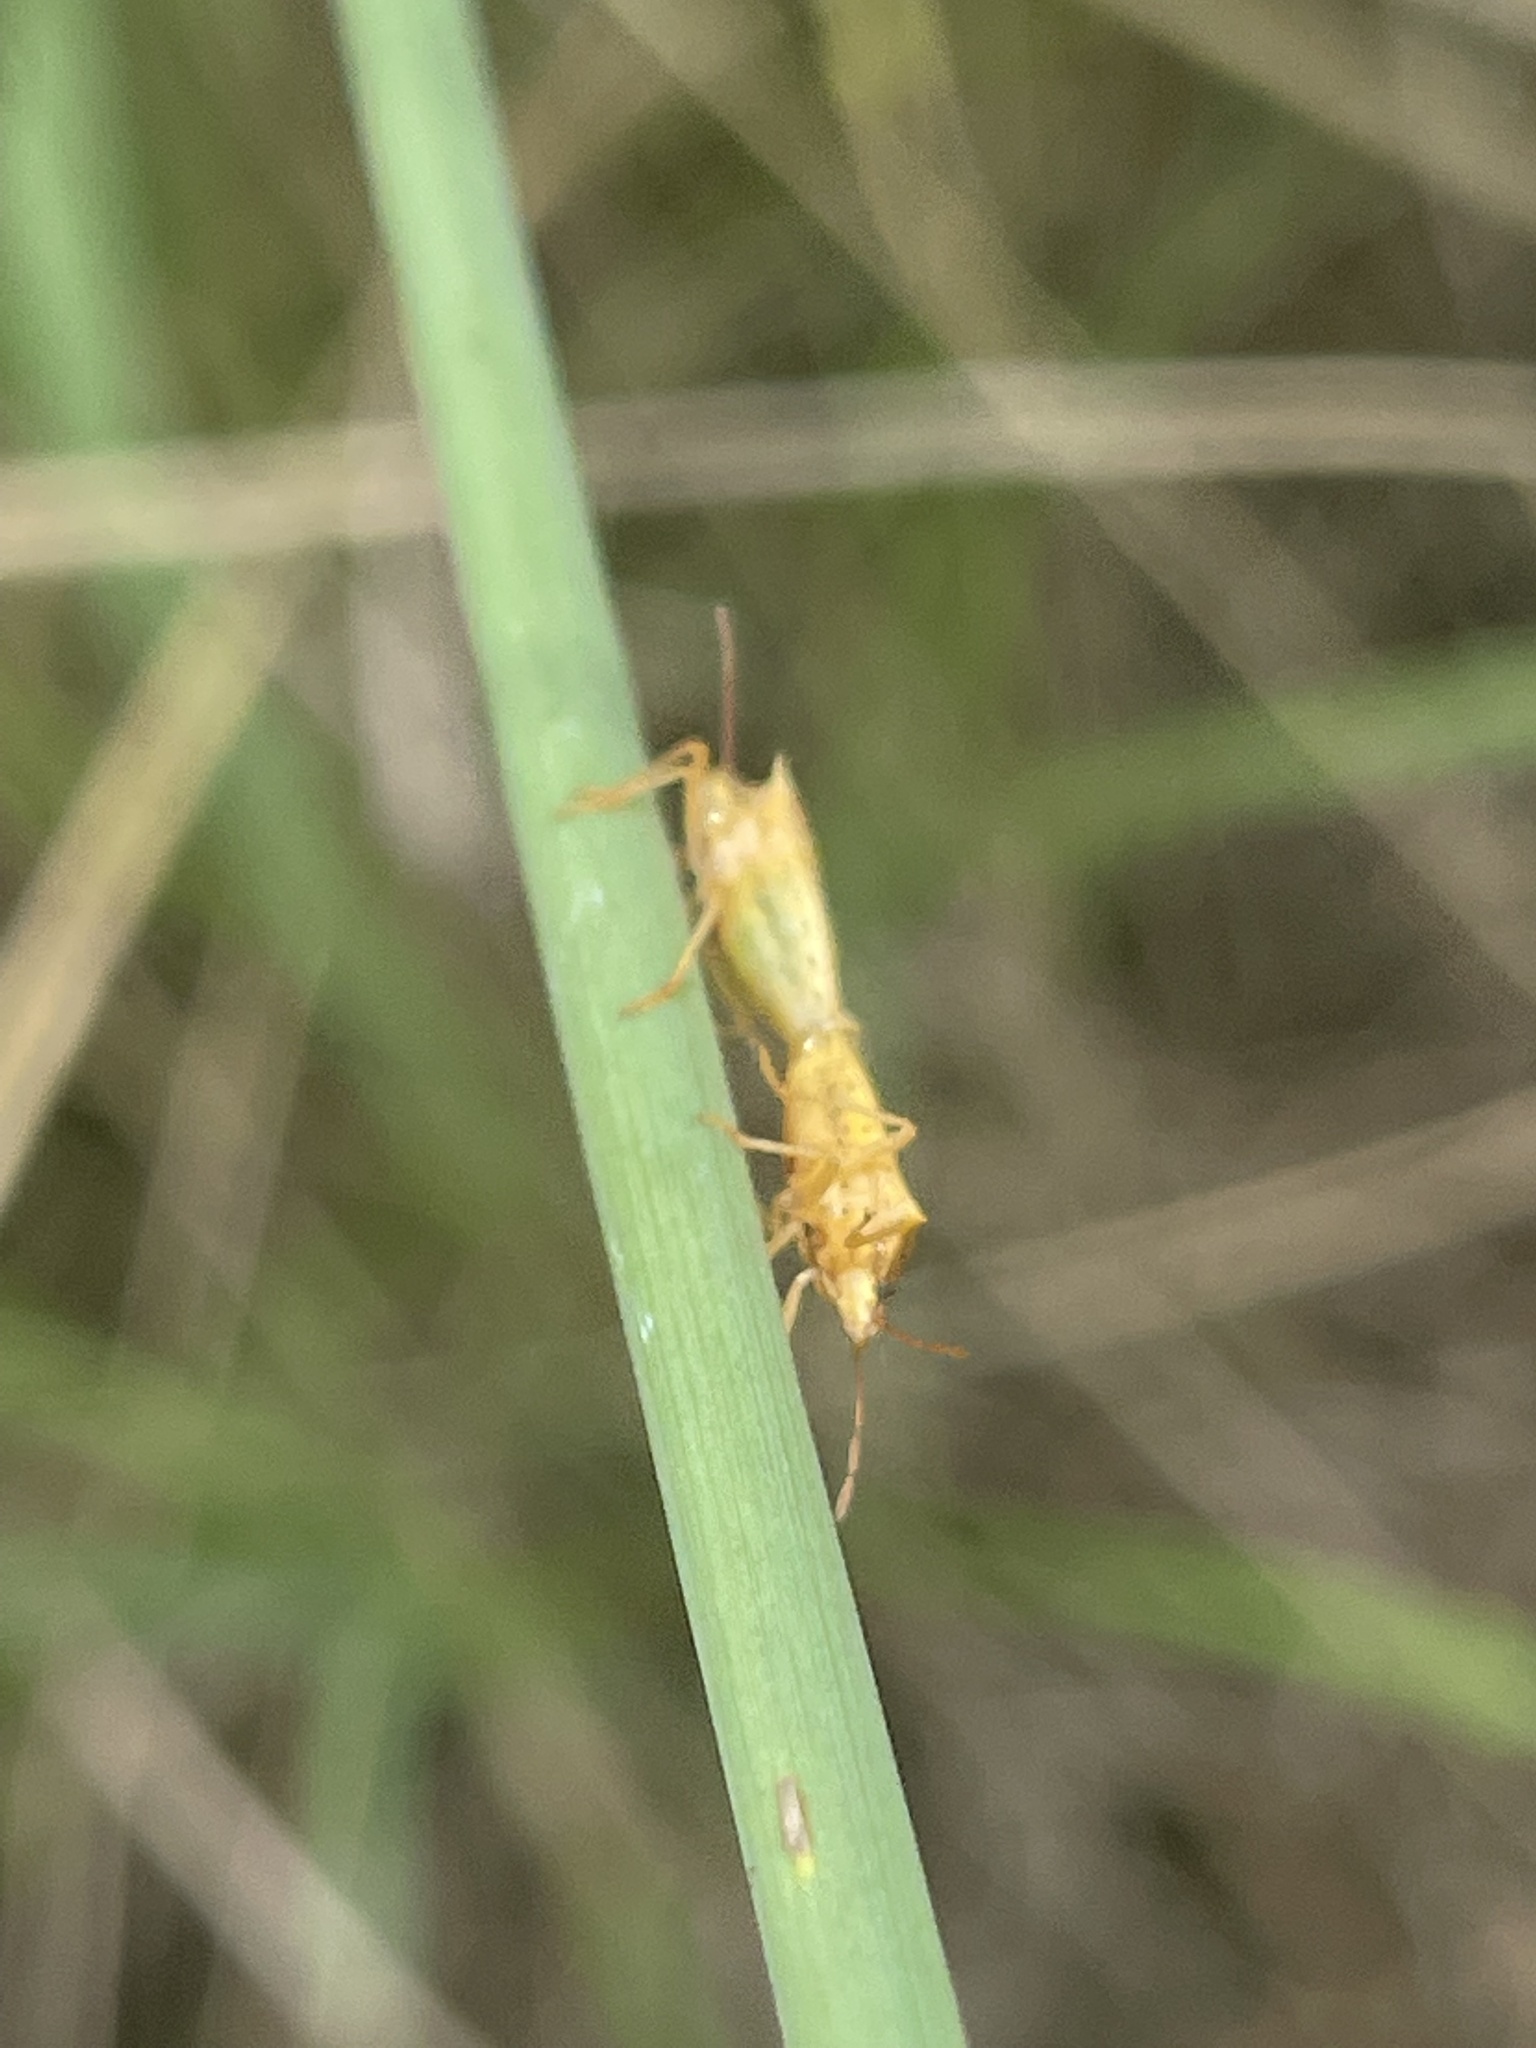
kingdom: Animalia
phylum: Arthropoda
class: Insecta
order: Hemiptera
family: Pentatomidae
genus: Oebalus
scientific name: Oebalus pugnax
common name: Rice stink bug
